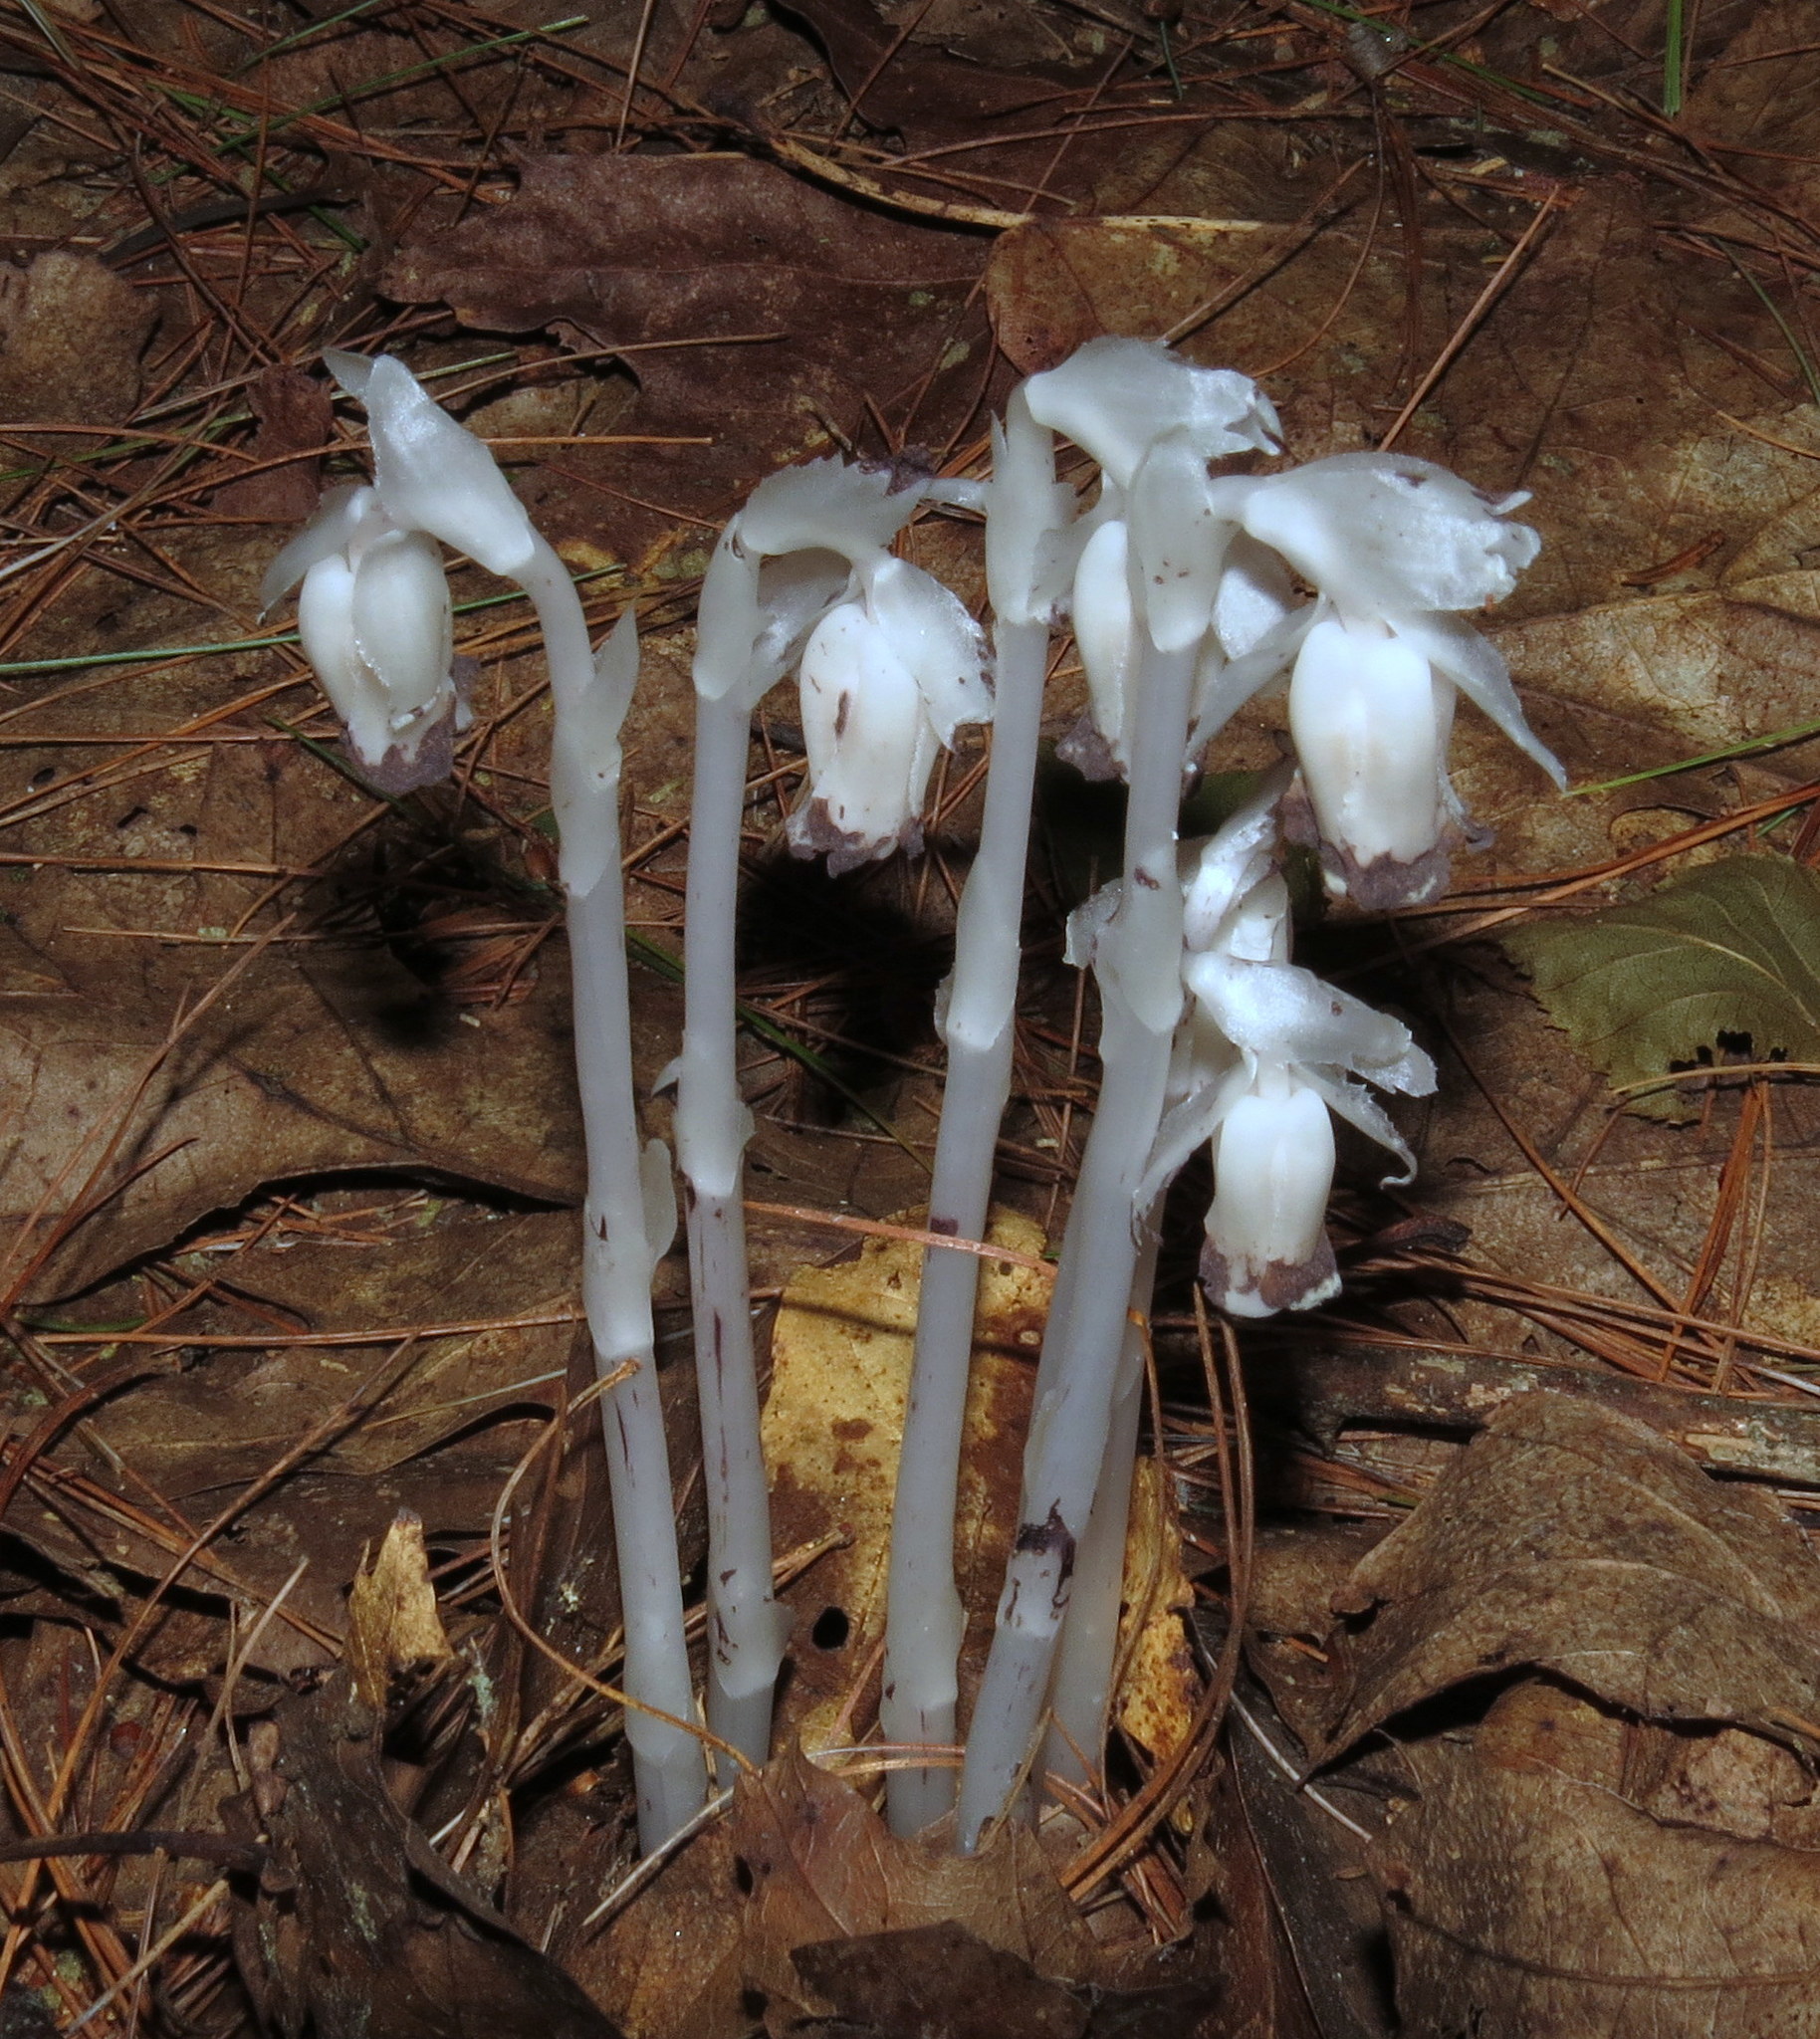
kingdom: Plantae
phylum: Tracheophyta
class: Magnoliopsida
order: Ericales
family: Ericaceae
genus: Monotropa
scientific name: Monotropa uniflora
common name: Convulsion root
